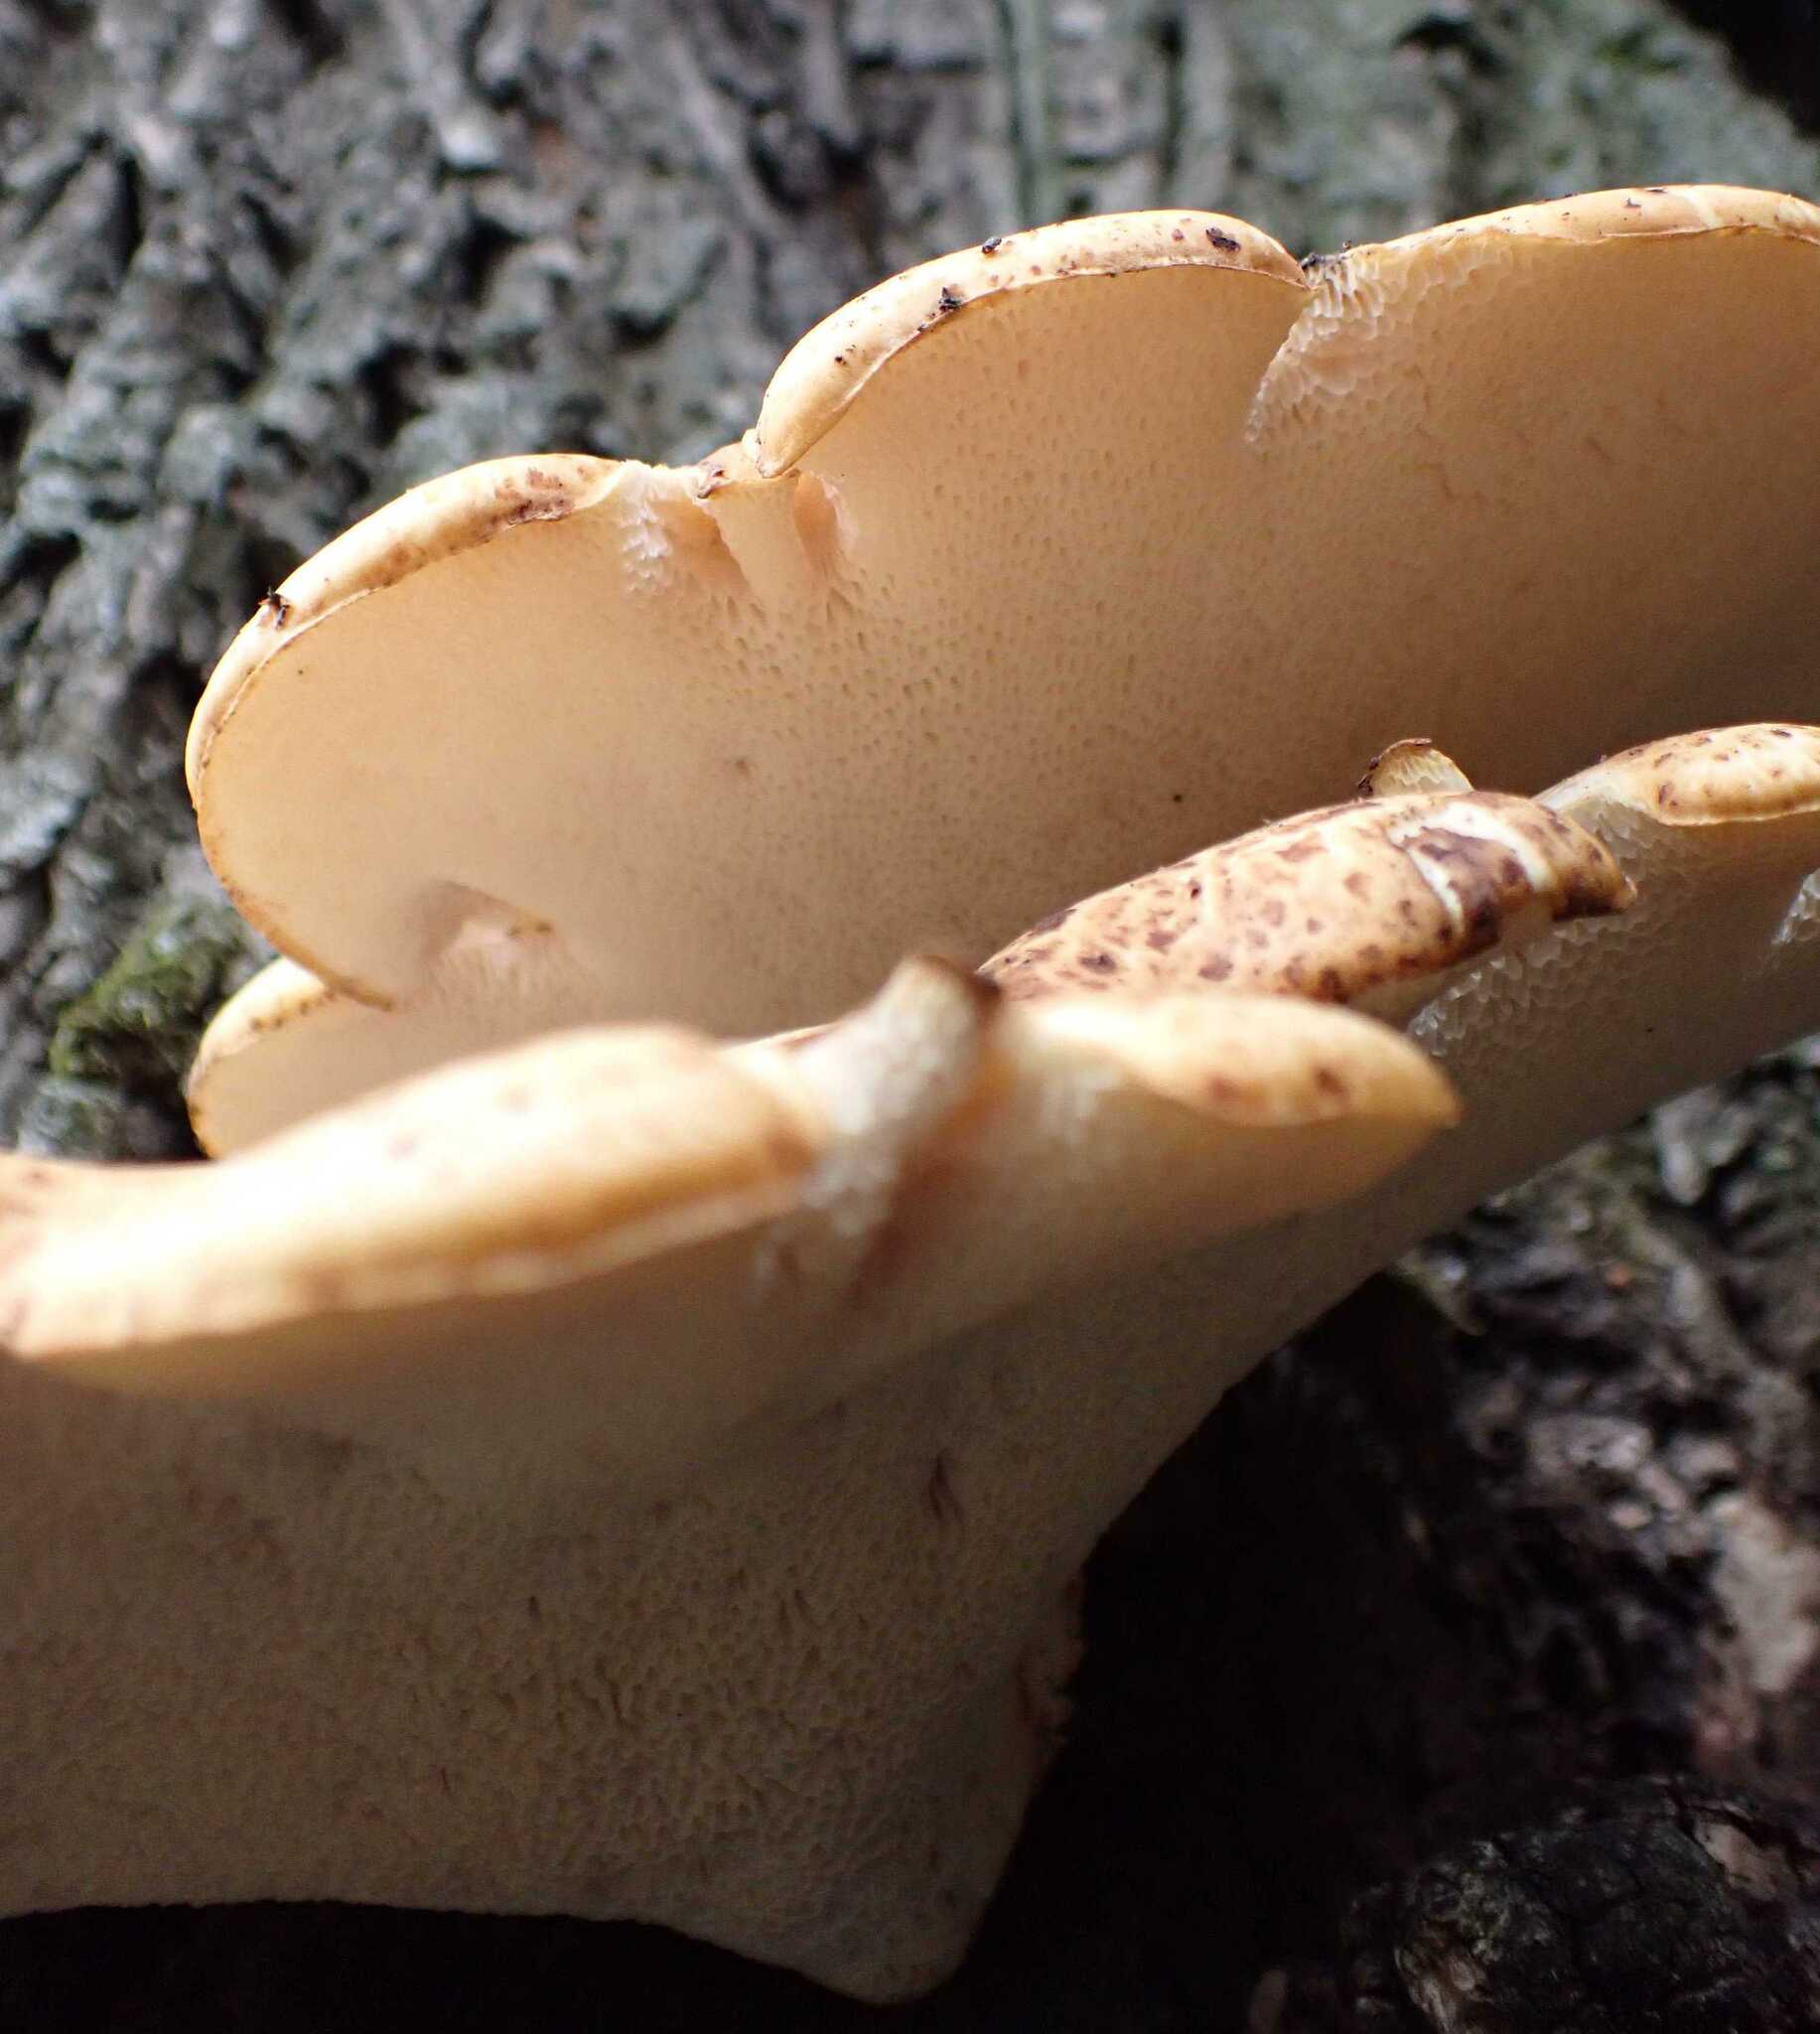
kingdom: Fungi
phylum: Basidiomycota
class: Agaricomycetes
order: Polyporales
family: Polyporaceae
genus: Cerioporus
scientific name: Cerioporus squamosus
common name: Dryad's saddle
